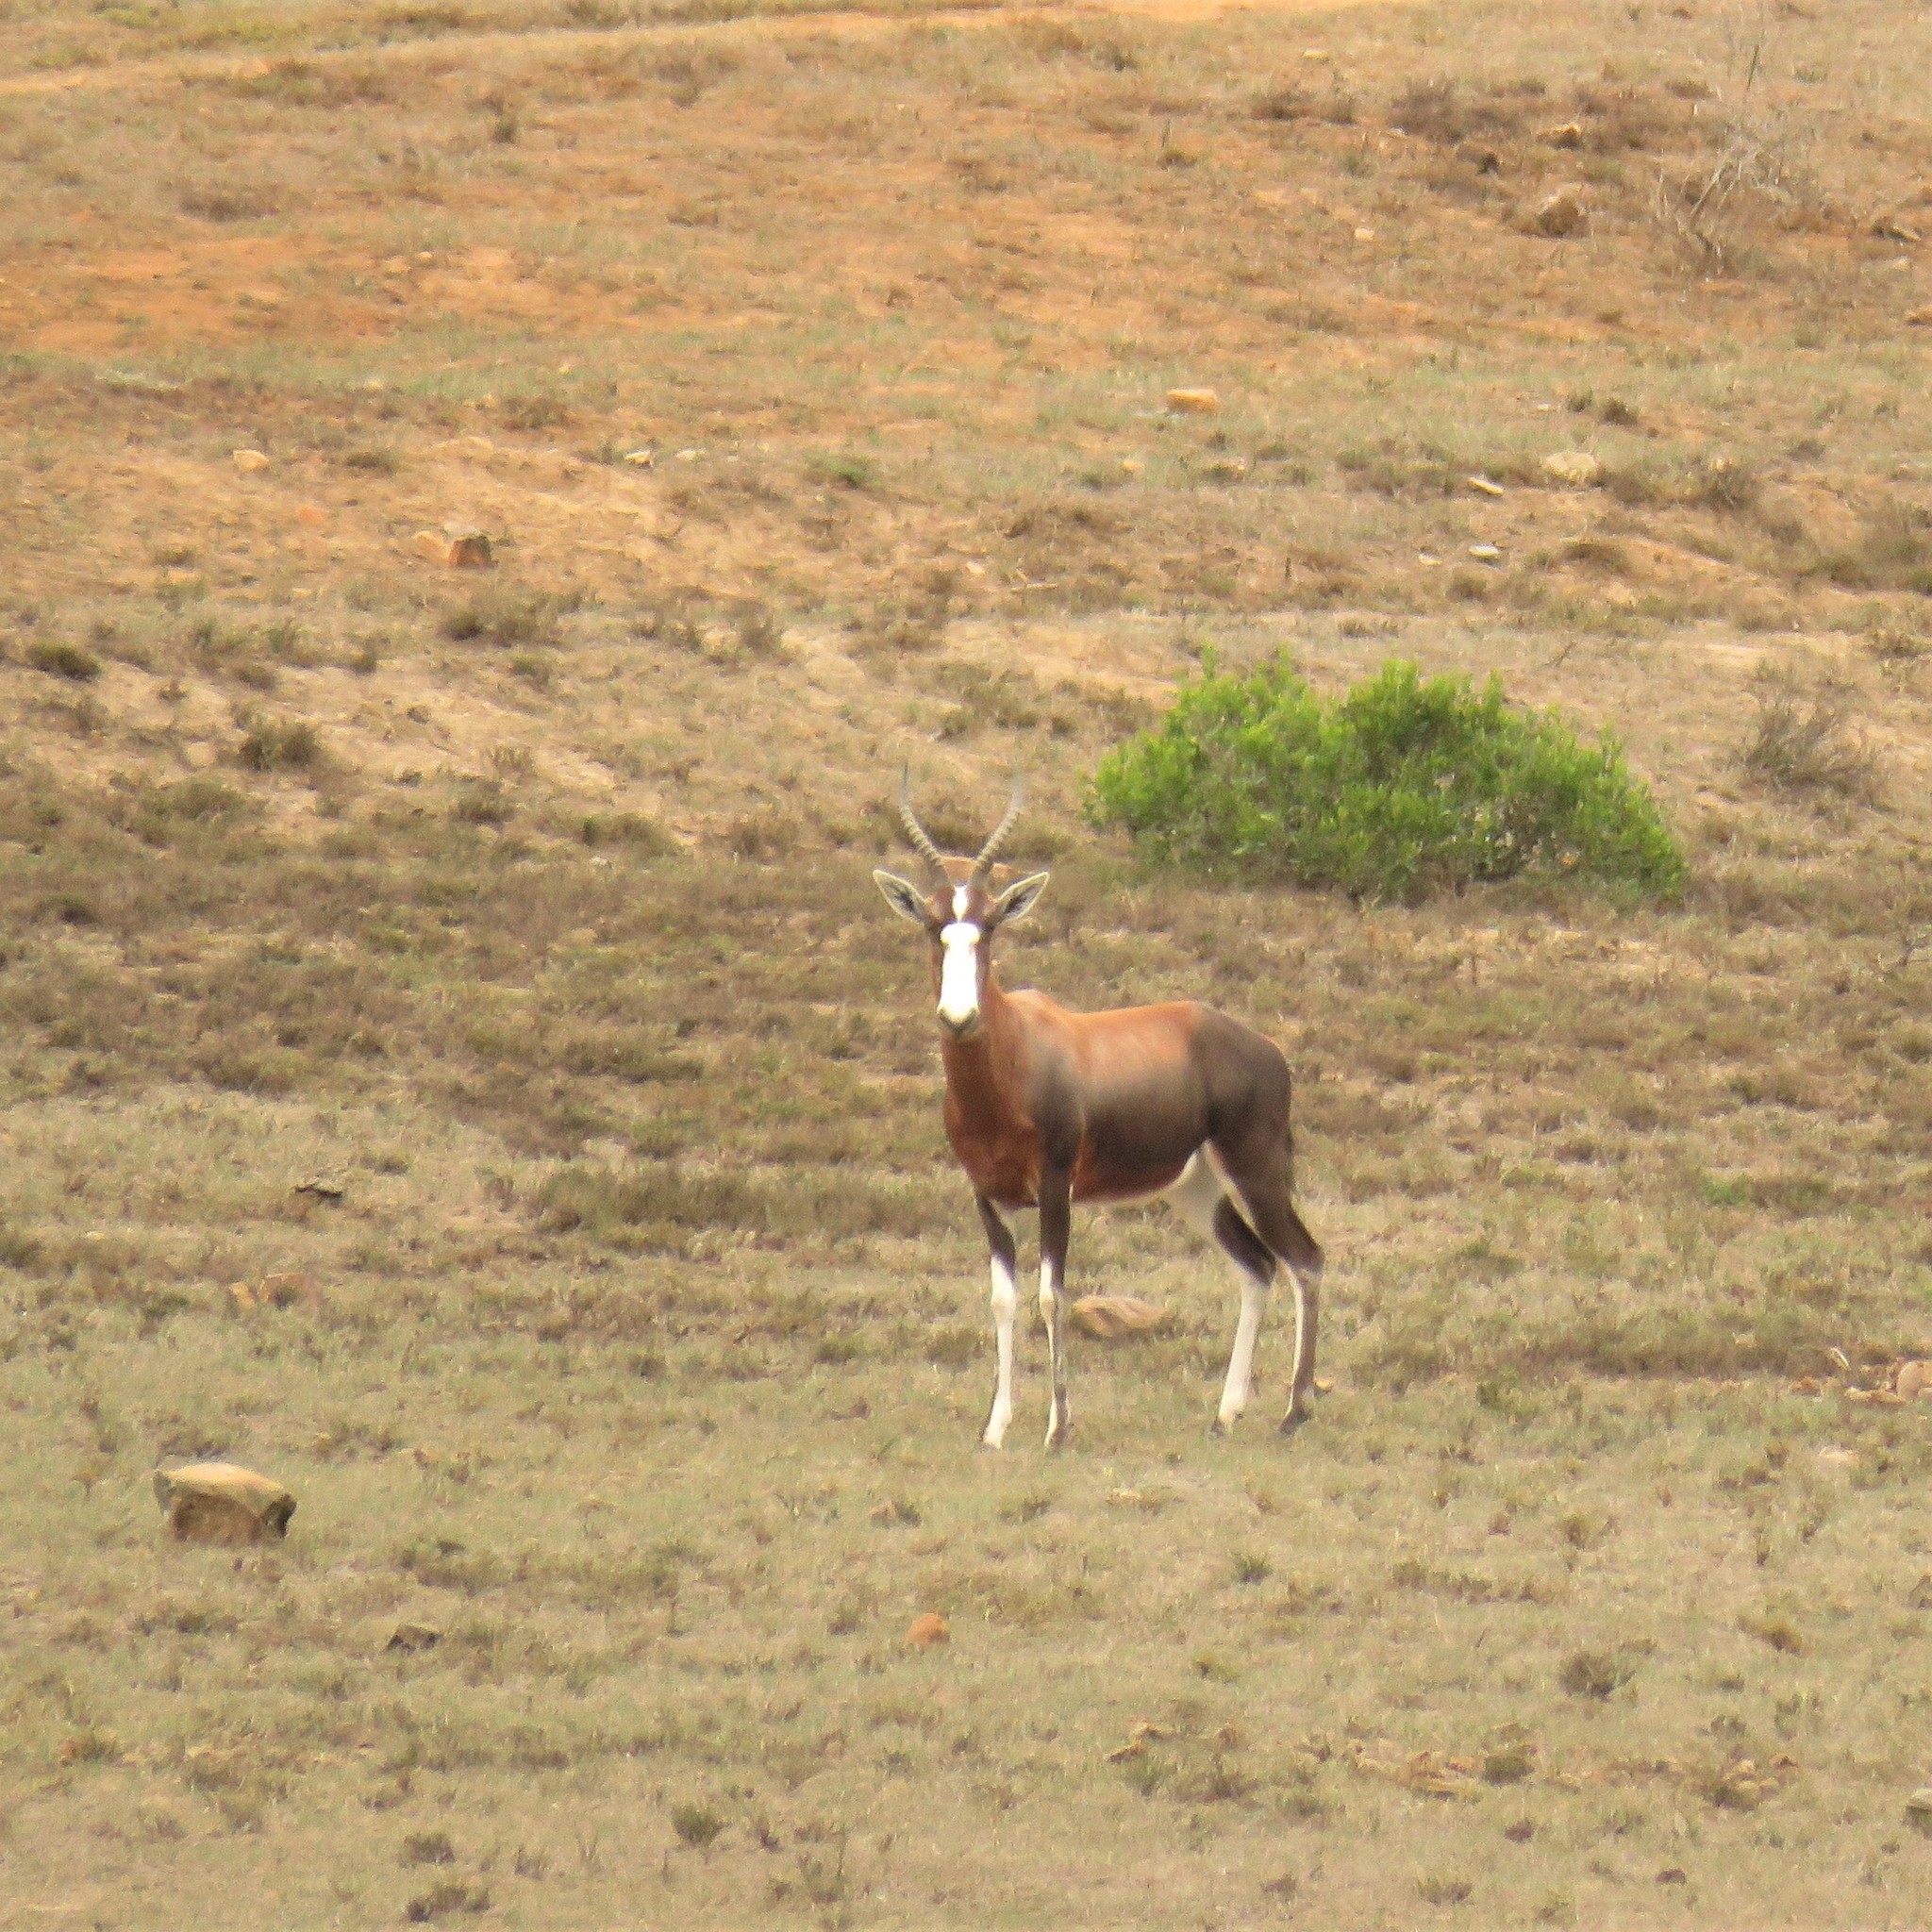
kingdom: Animalia
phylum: Chordata
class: Mammalia
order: Artiodactyla
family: Bovidae
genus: Damaliscus
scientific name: Damaliscus pygargus
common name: Bontebok
